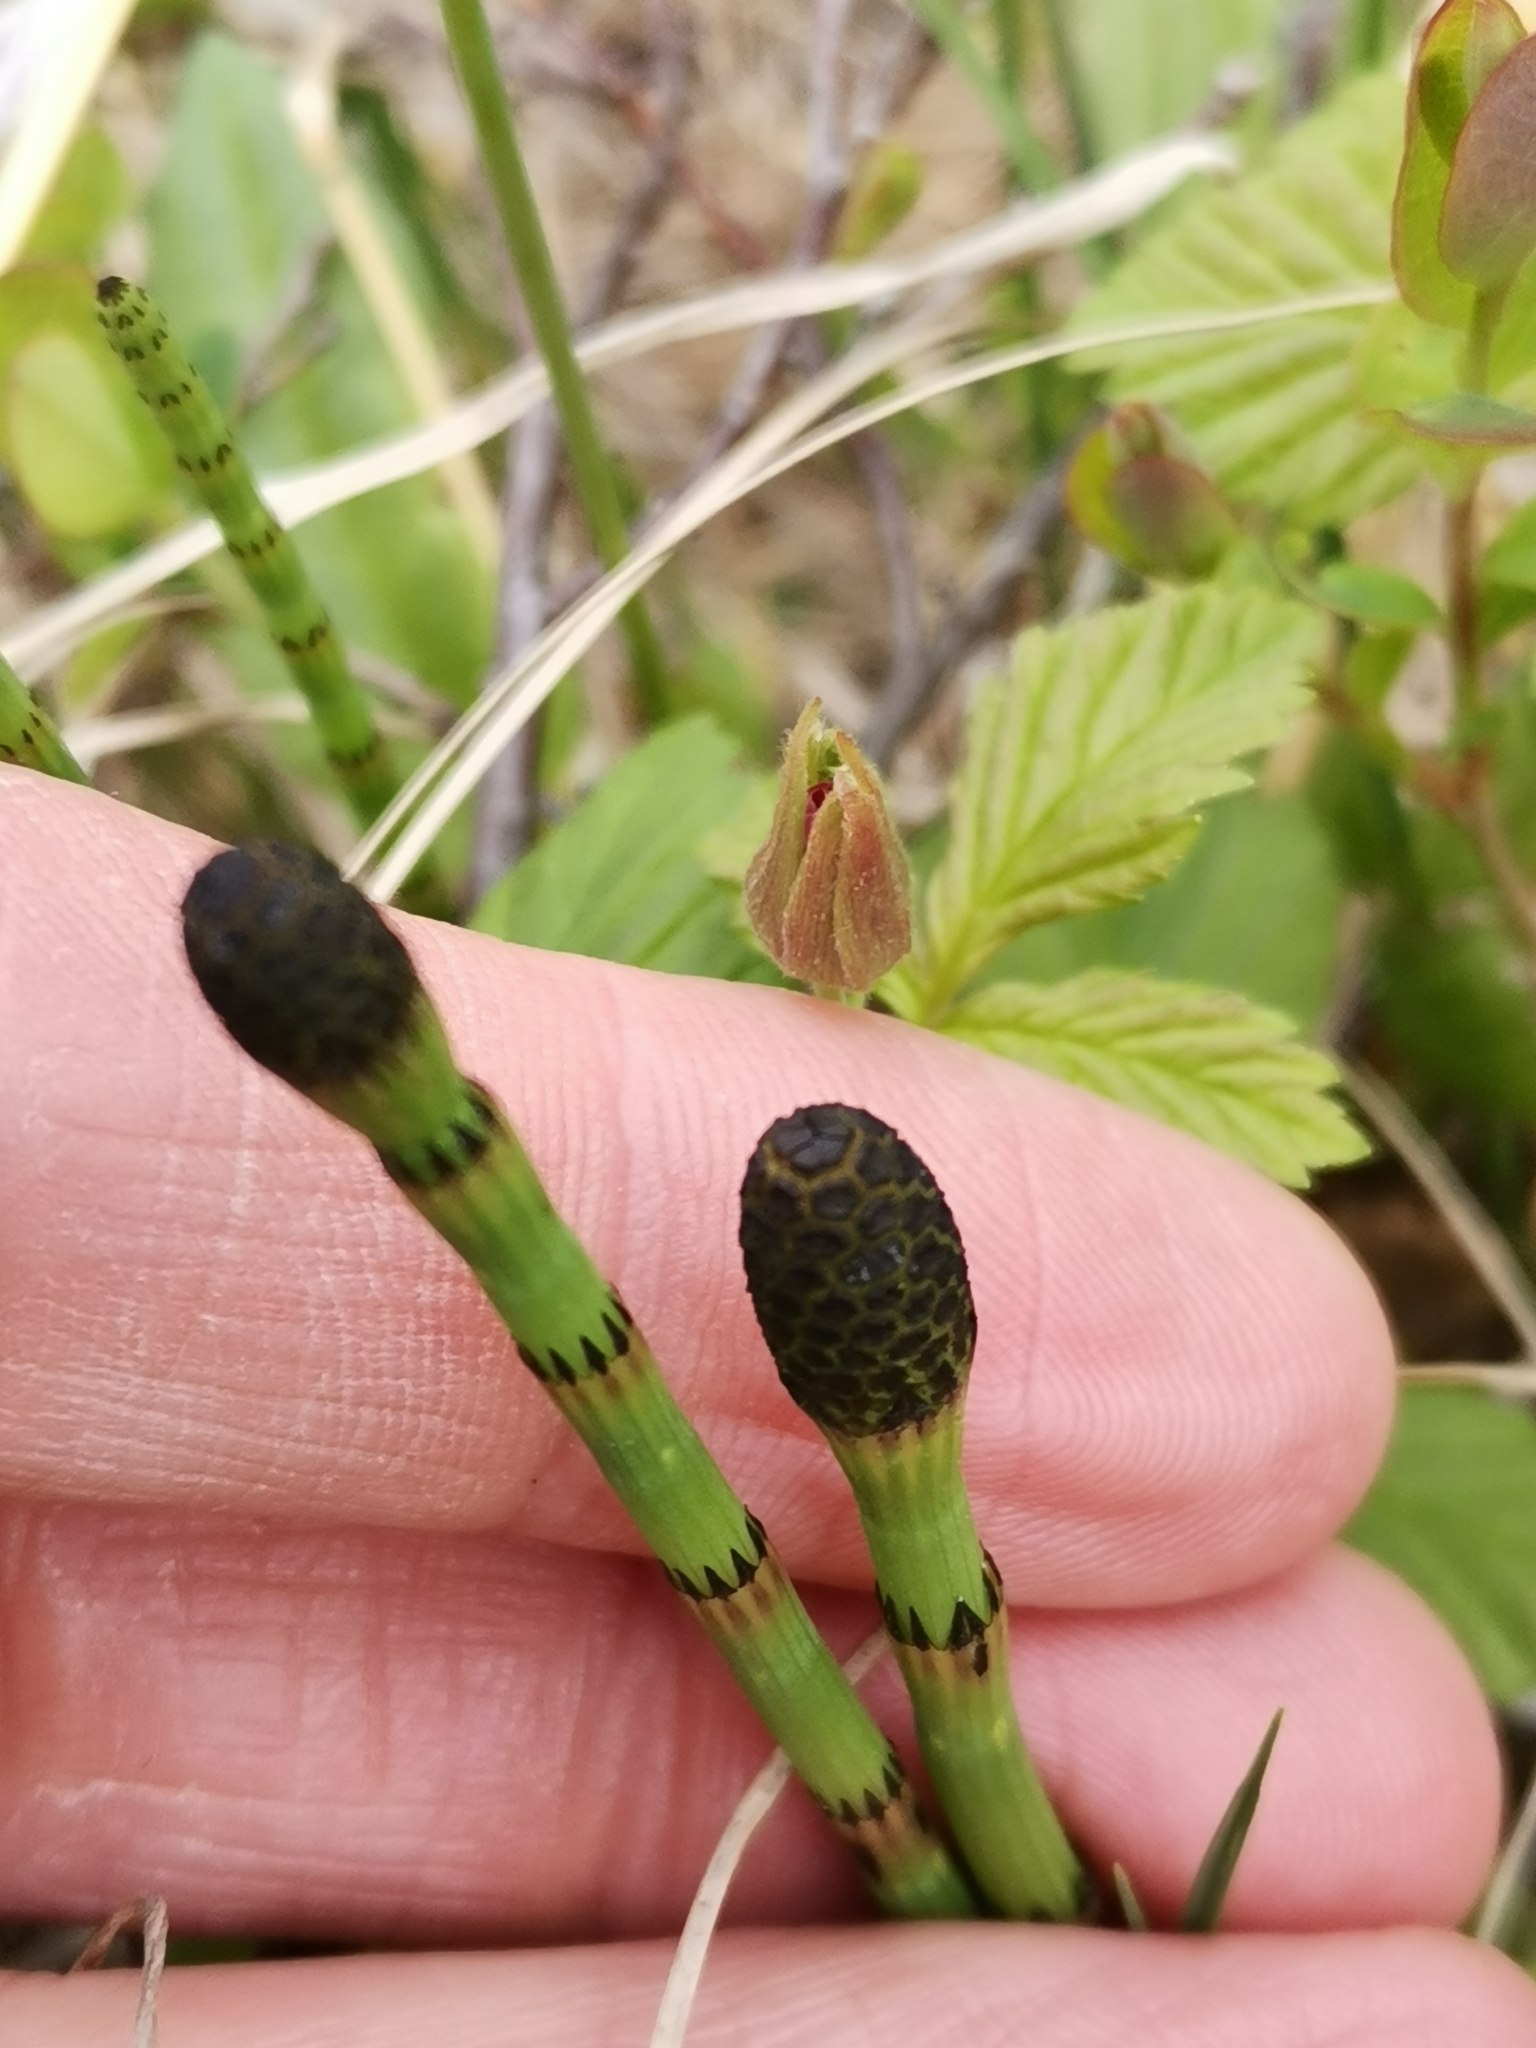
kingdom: Plantae
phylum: Tracheophyta
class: Polypodiopsida
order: Equisetales
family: Equisetaceae
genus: Equisetum
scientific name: Equisetum fluviatile
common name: Water horsetail
